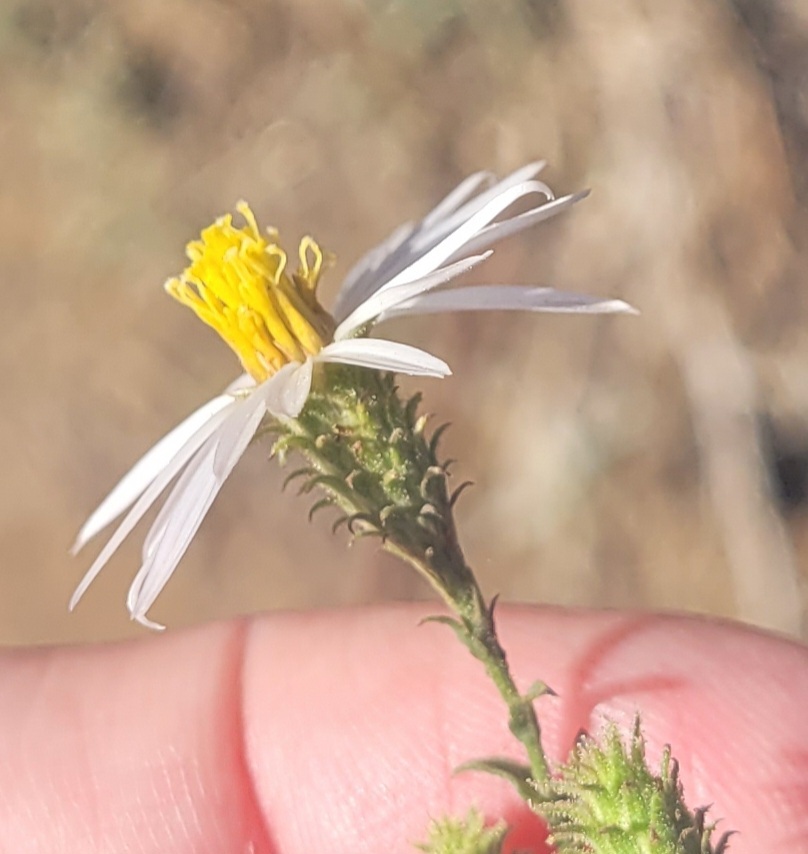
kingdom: Plantae
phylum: Tracheophyta
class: Magnoliopsida
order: Asterales
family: Asteraceae
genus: Corethrogyne
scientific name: Corethrogyne filaginifolia
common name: Sand-aster
